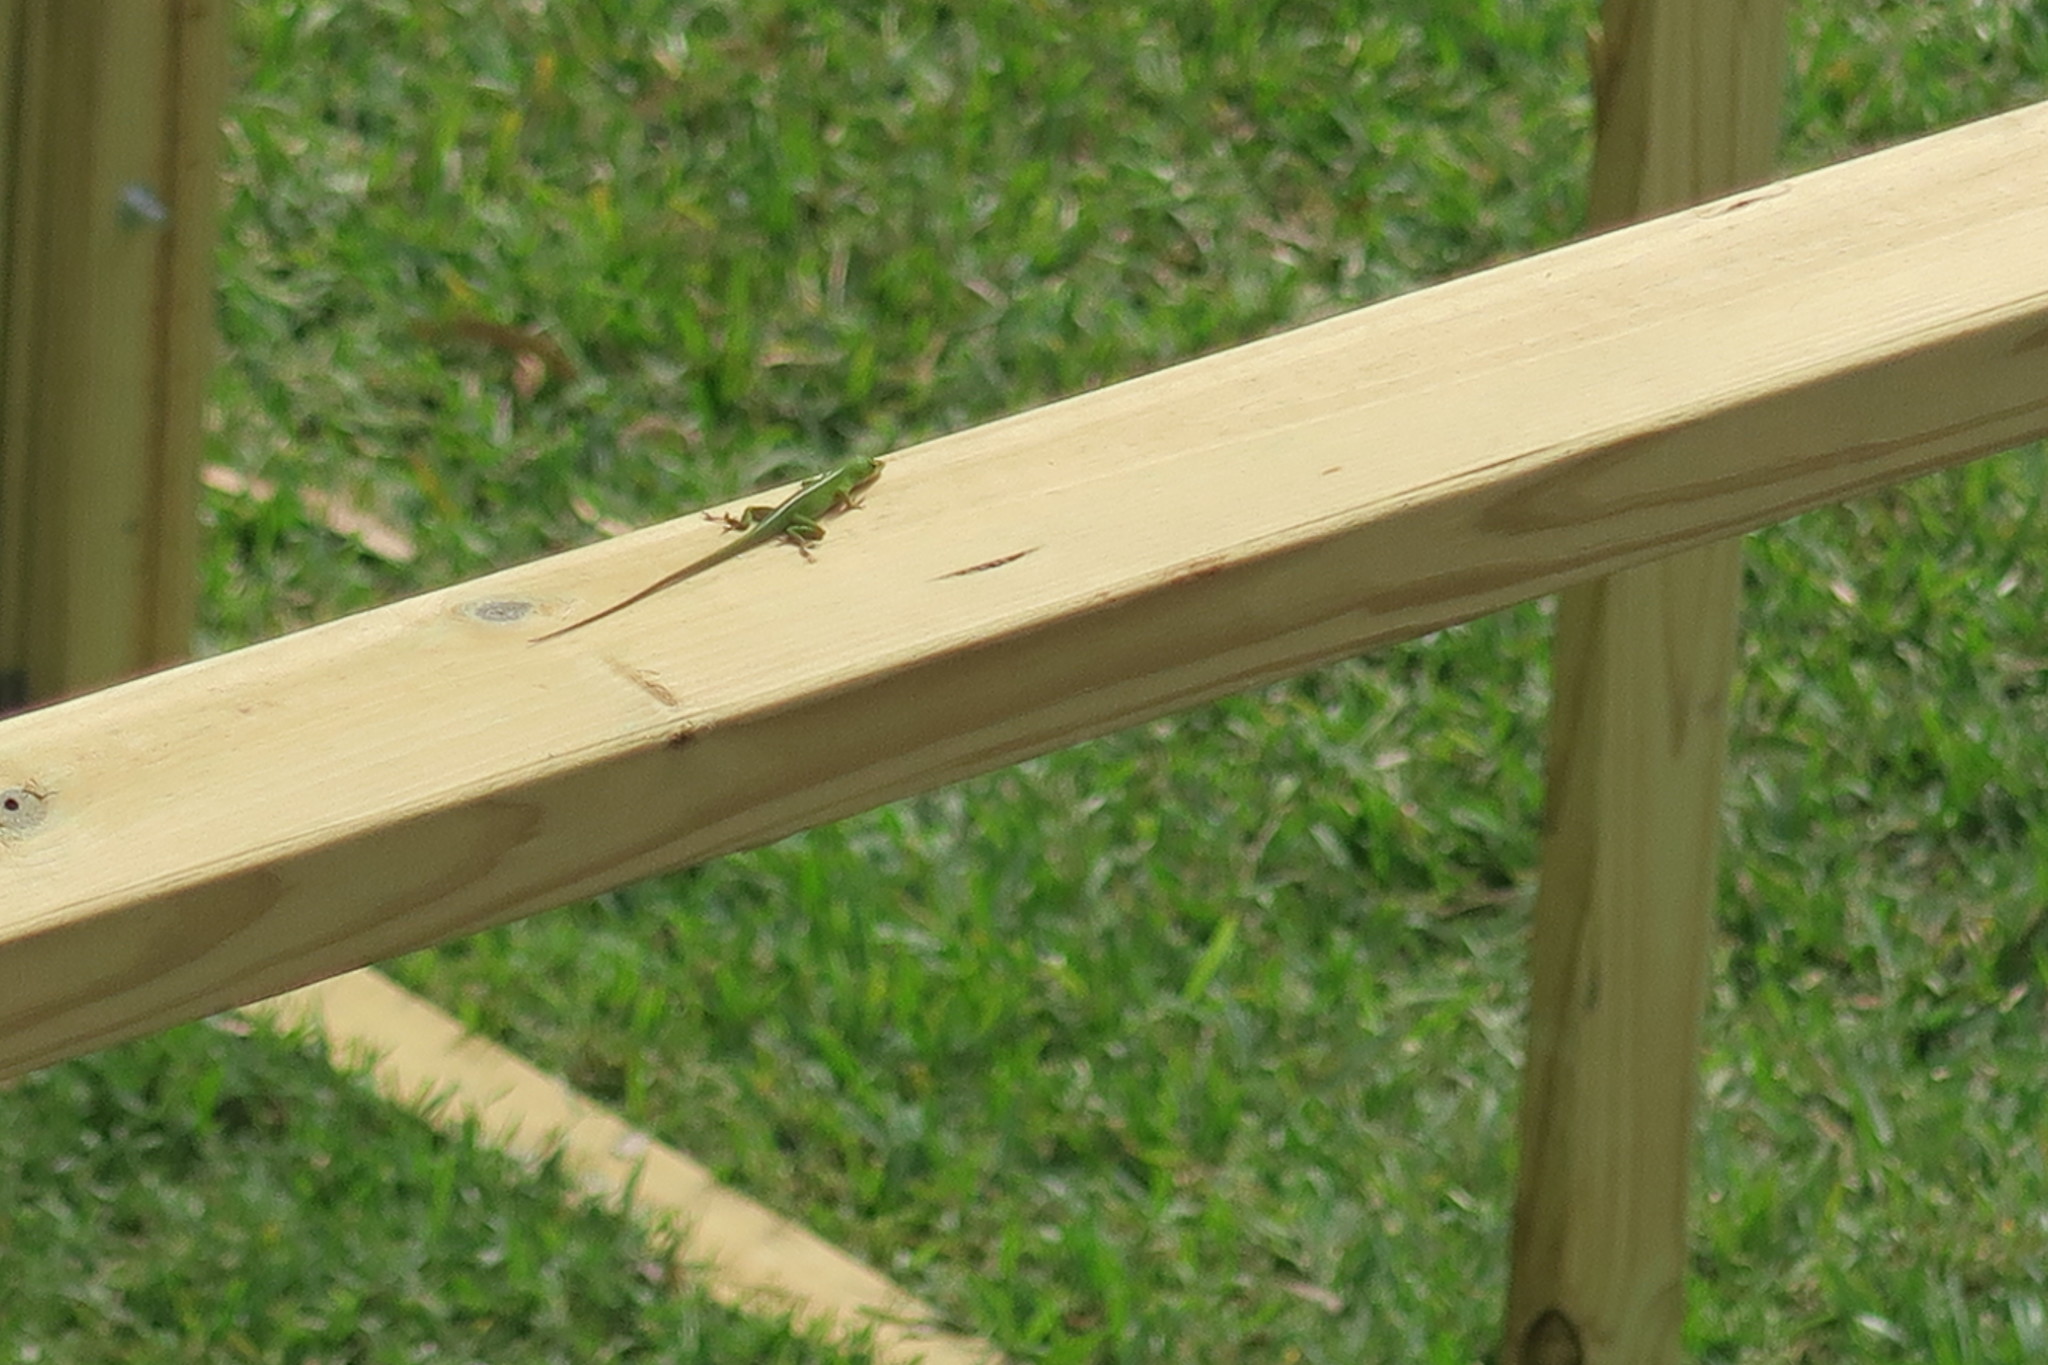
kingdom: Animalia
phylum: Chordata
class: Squamata
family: Dactyloidae
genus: Anolis
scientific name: Anolis carolinensis
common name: Green anole
